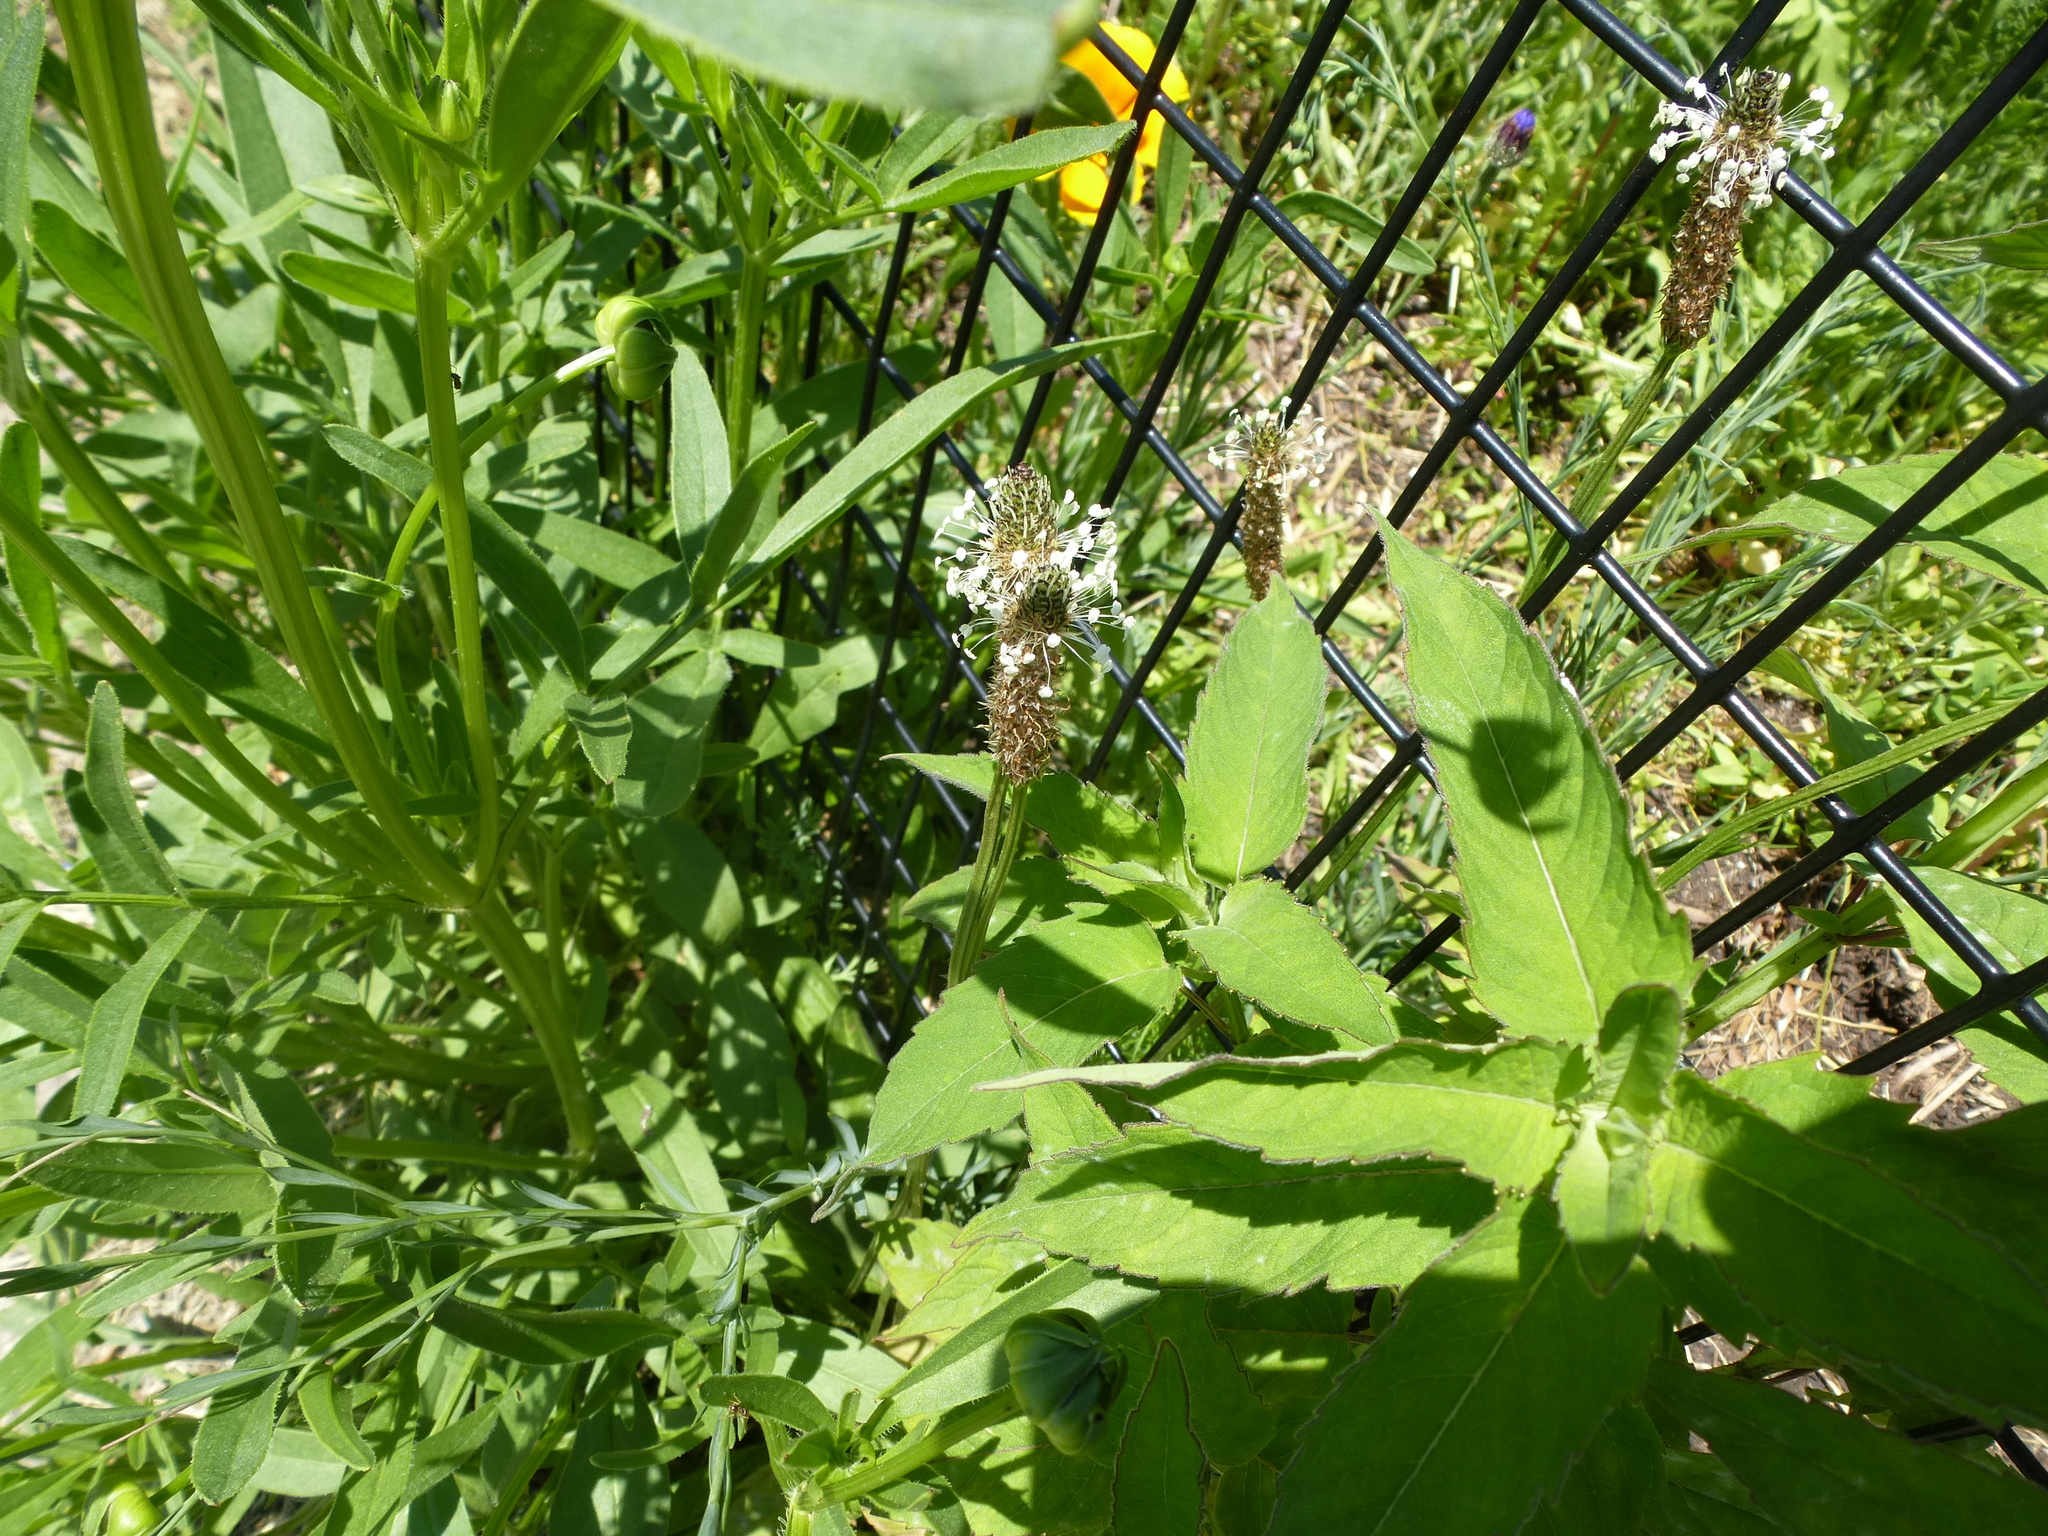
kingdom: Plantae
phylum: Tracheophyta
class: Magnoliopsida
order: Lamiales
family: Plantaginaceae
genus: Plantago
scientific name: Plantago lanceolata
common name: Ribwort plantain
